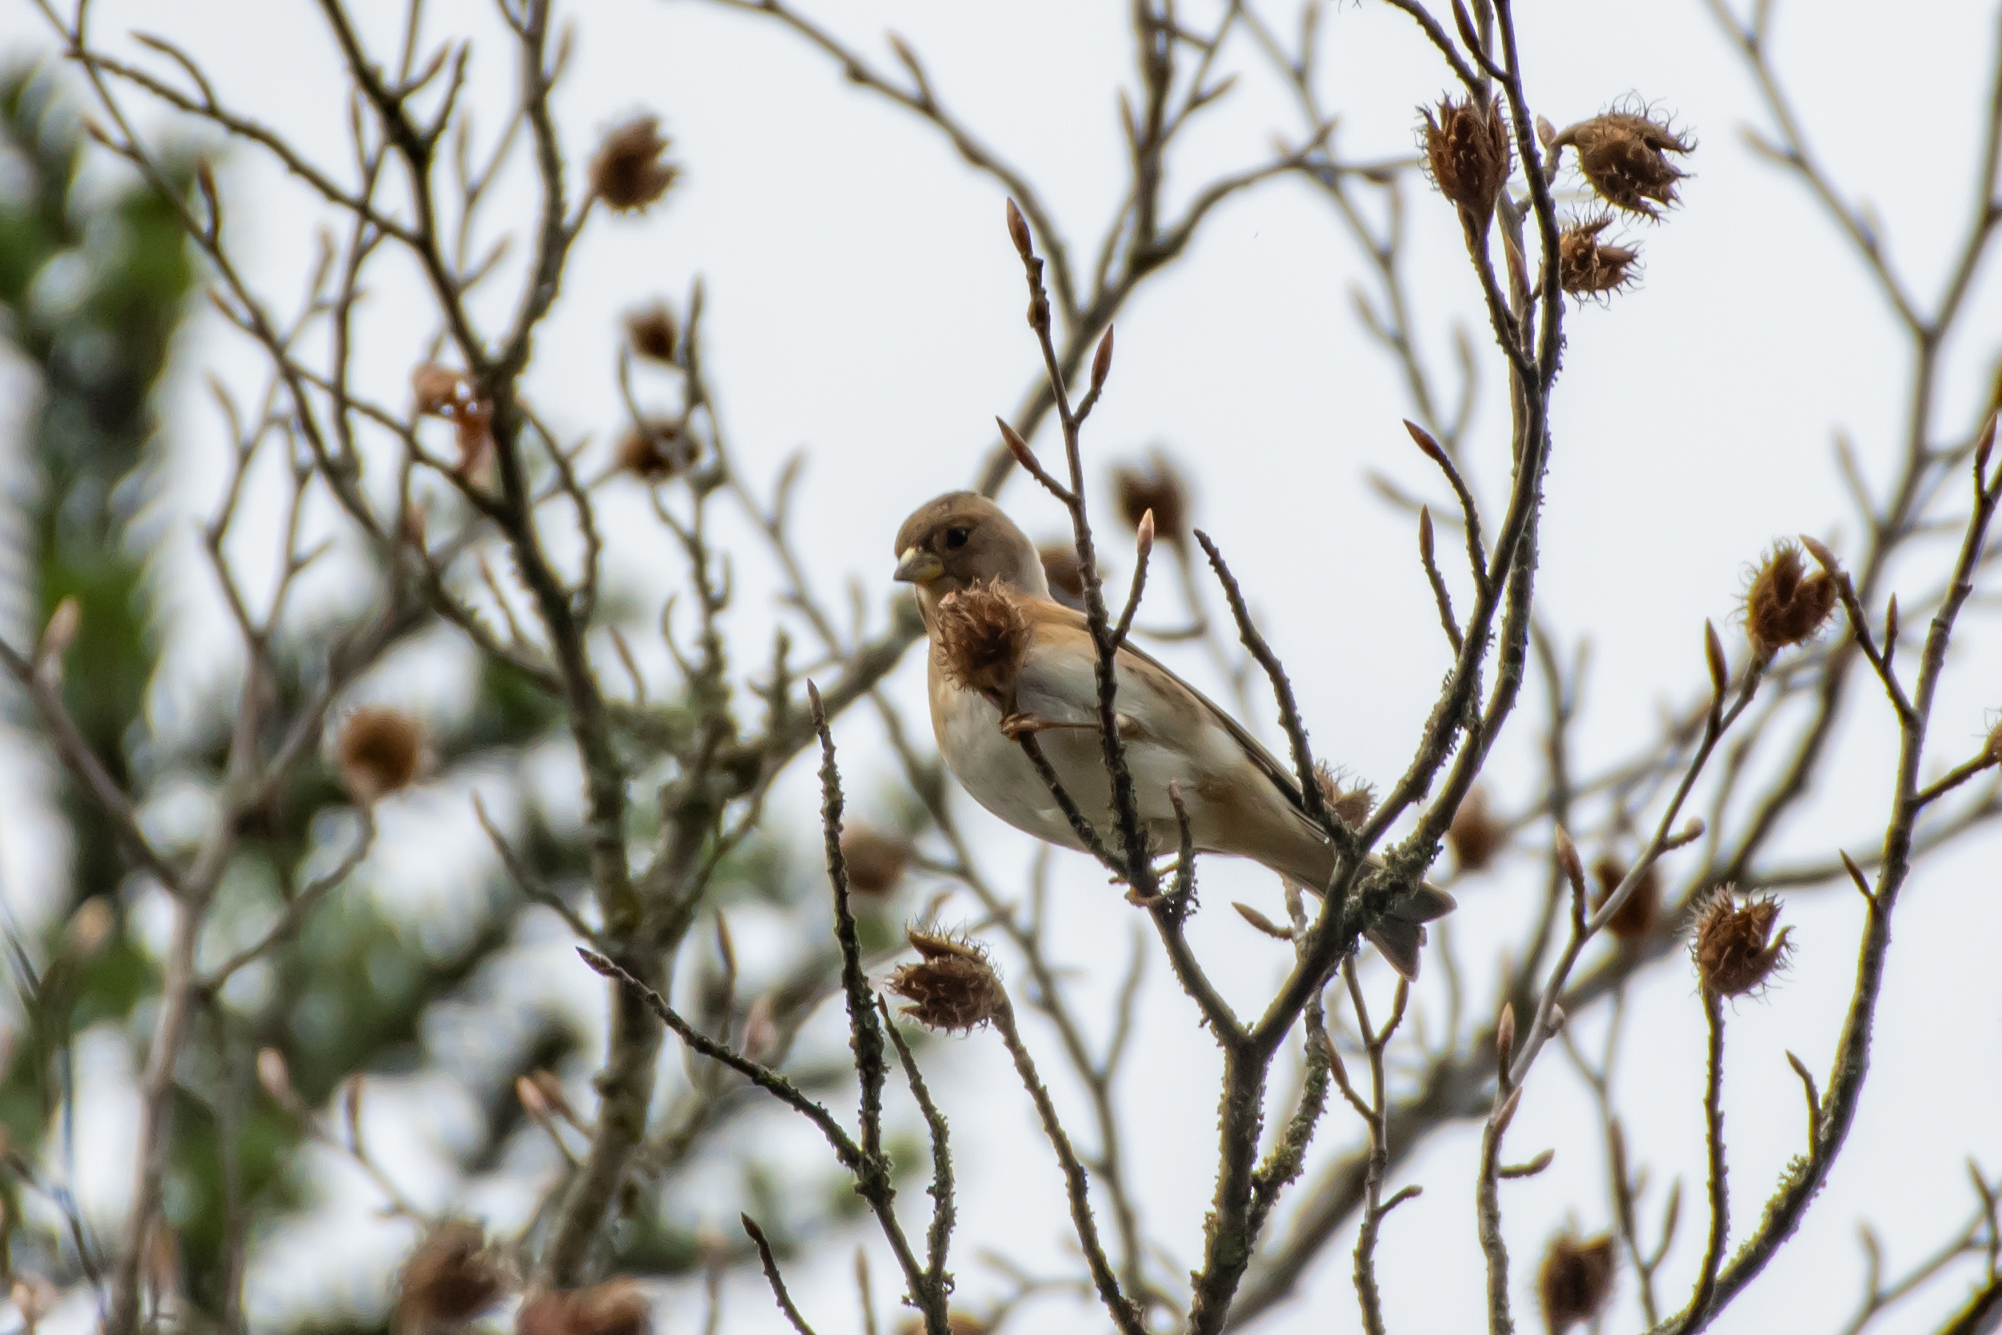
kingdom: Animalia
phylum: Chordata
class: Aves
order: Passeriformes
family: Fringillidae
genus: Fringilla
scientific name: Fringilla montifringilla
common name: Brambling
